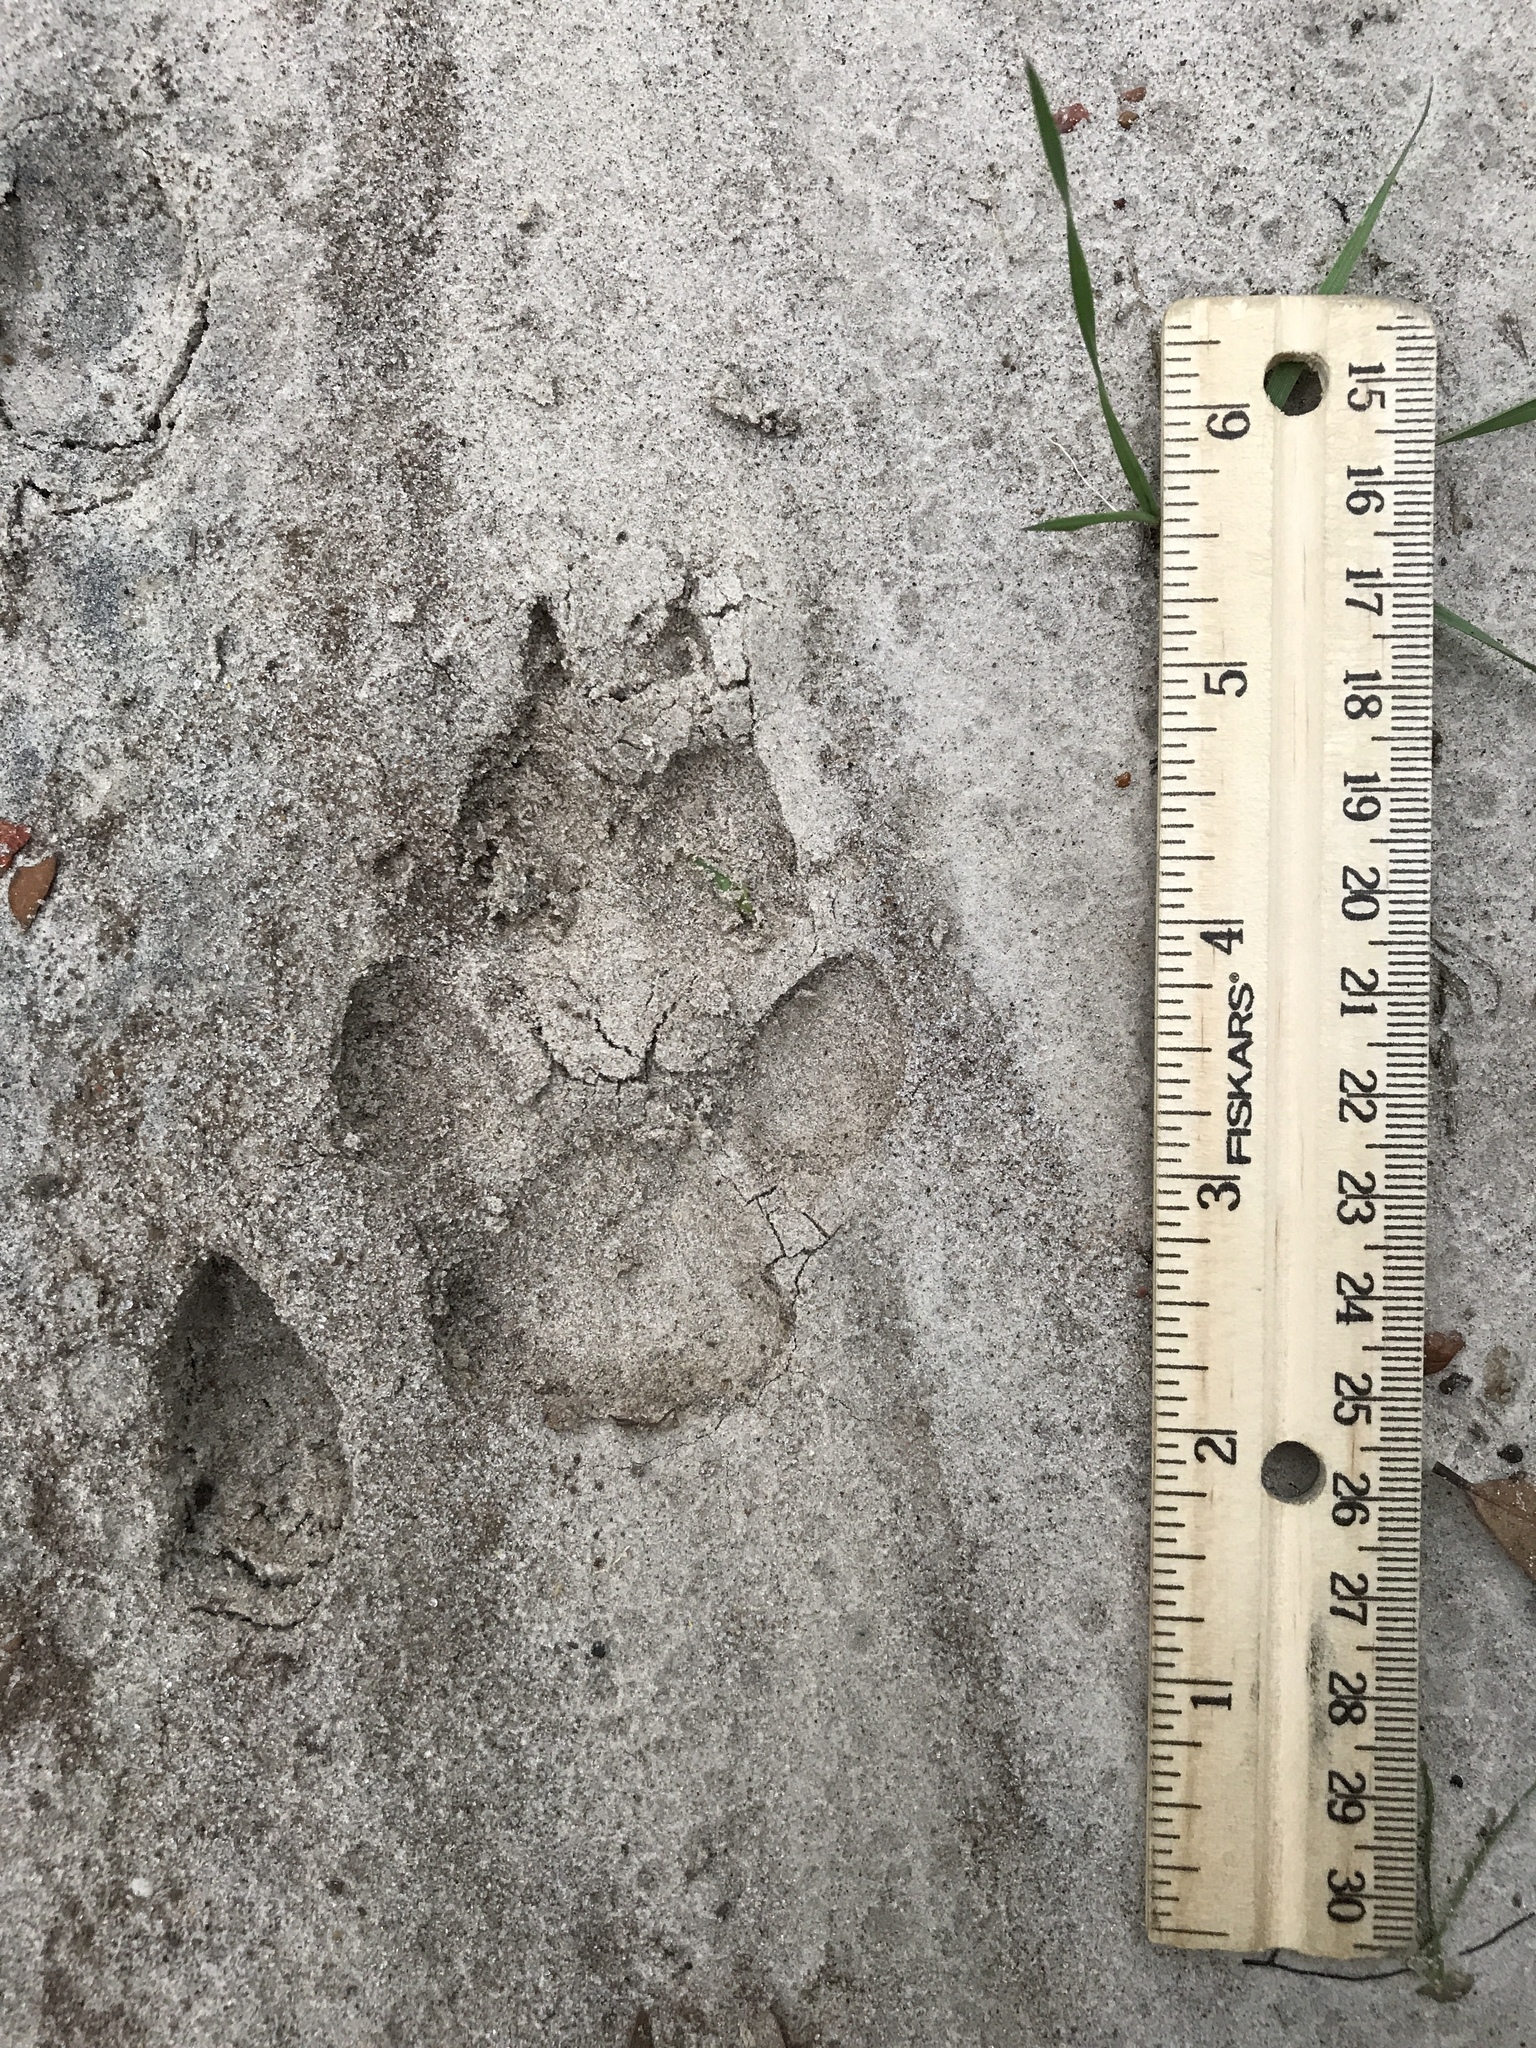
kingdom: Animalia
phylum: Chordata
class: Mammalia
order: Carnivora
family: Canidae
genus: Canis
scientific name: Canis latrans
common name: Coyote
